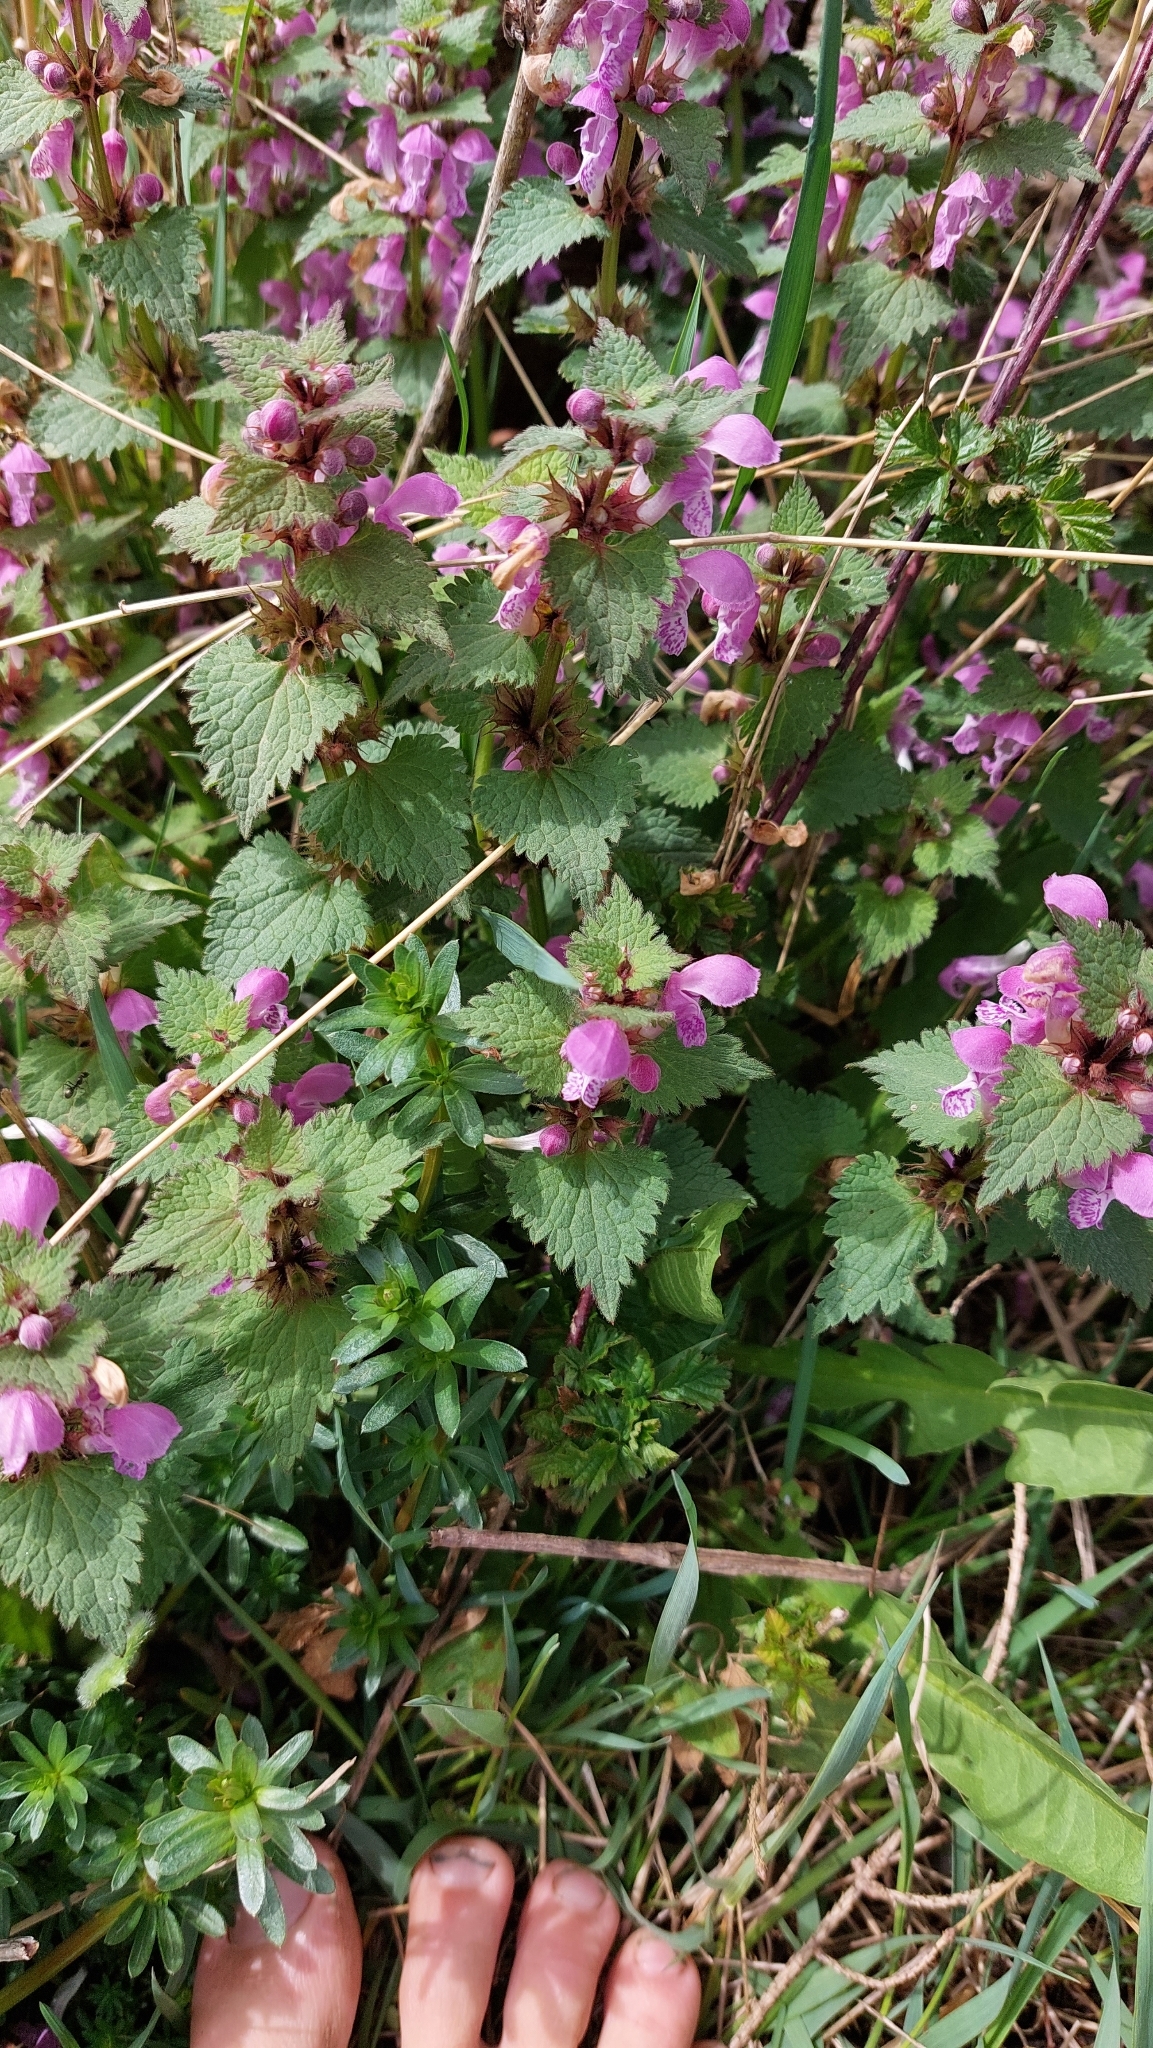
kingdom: Plantae
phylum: Tracheophyta
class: Magnoliopsida
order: Lamiales
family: Lamiaceae
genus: Lamium
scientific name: Lamium maculatum
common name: Spotted dead-nettle
